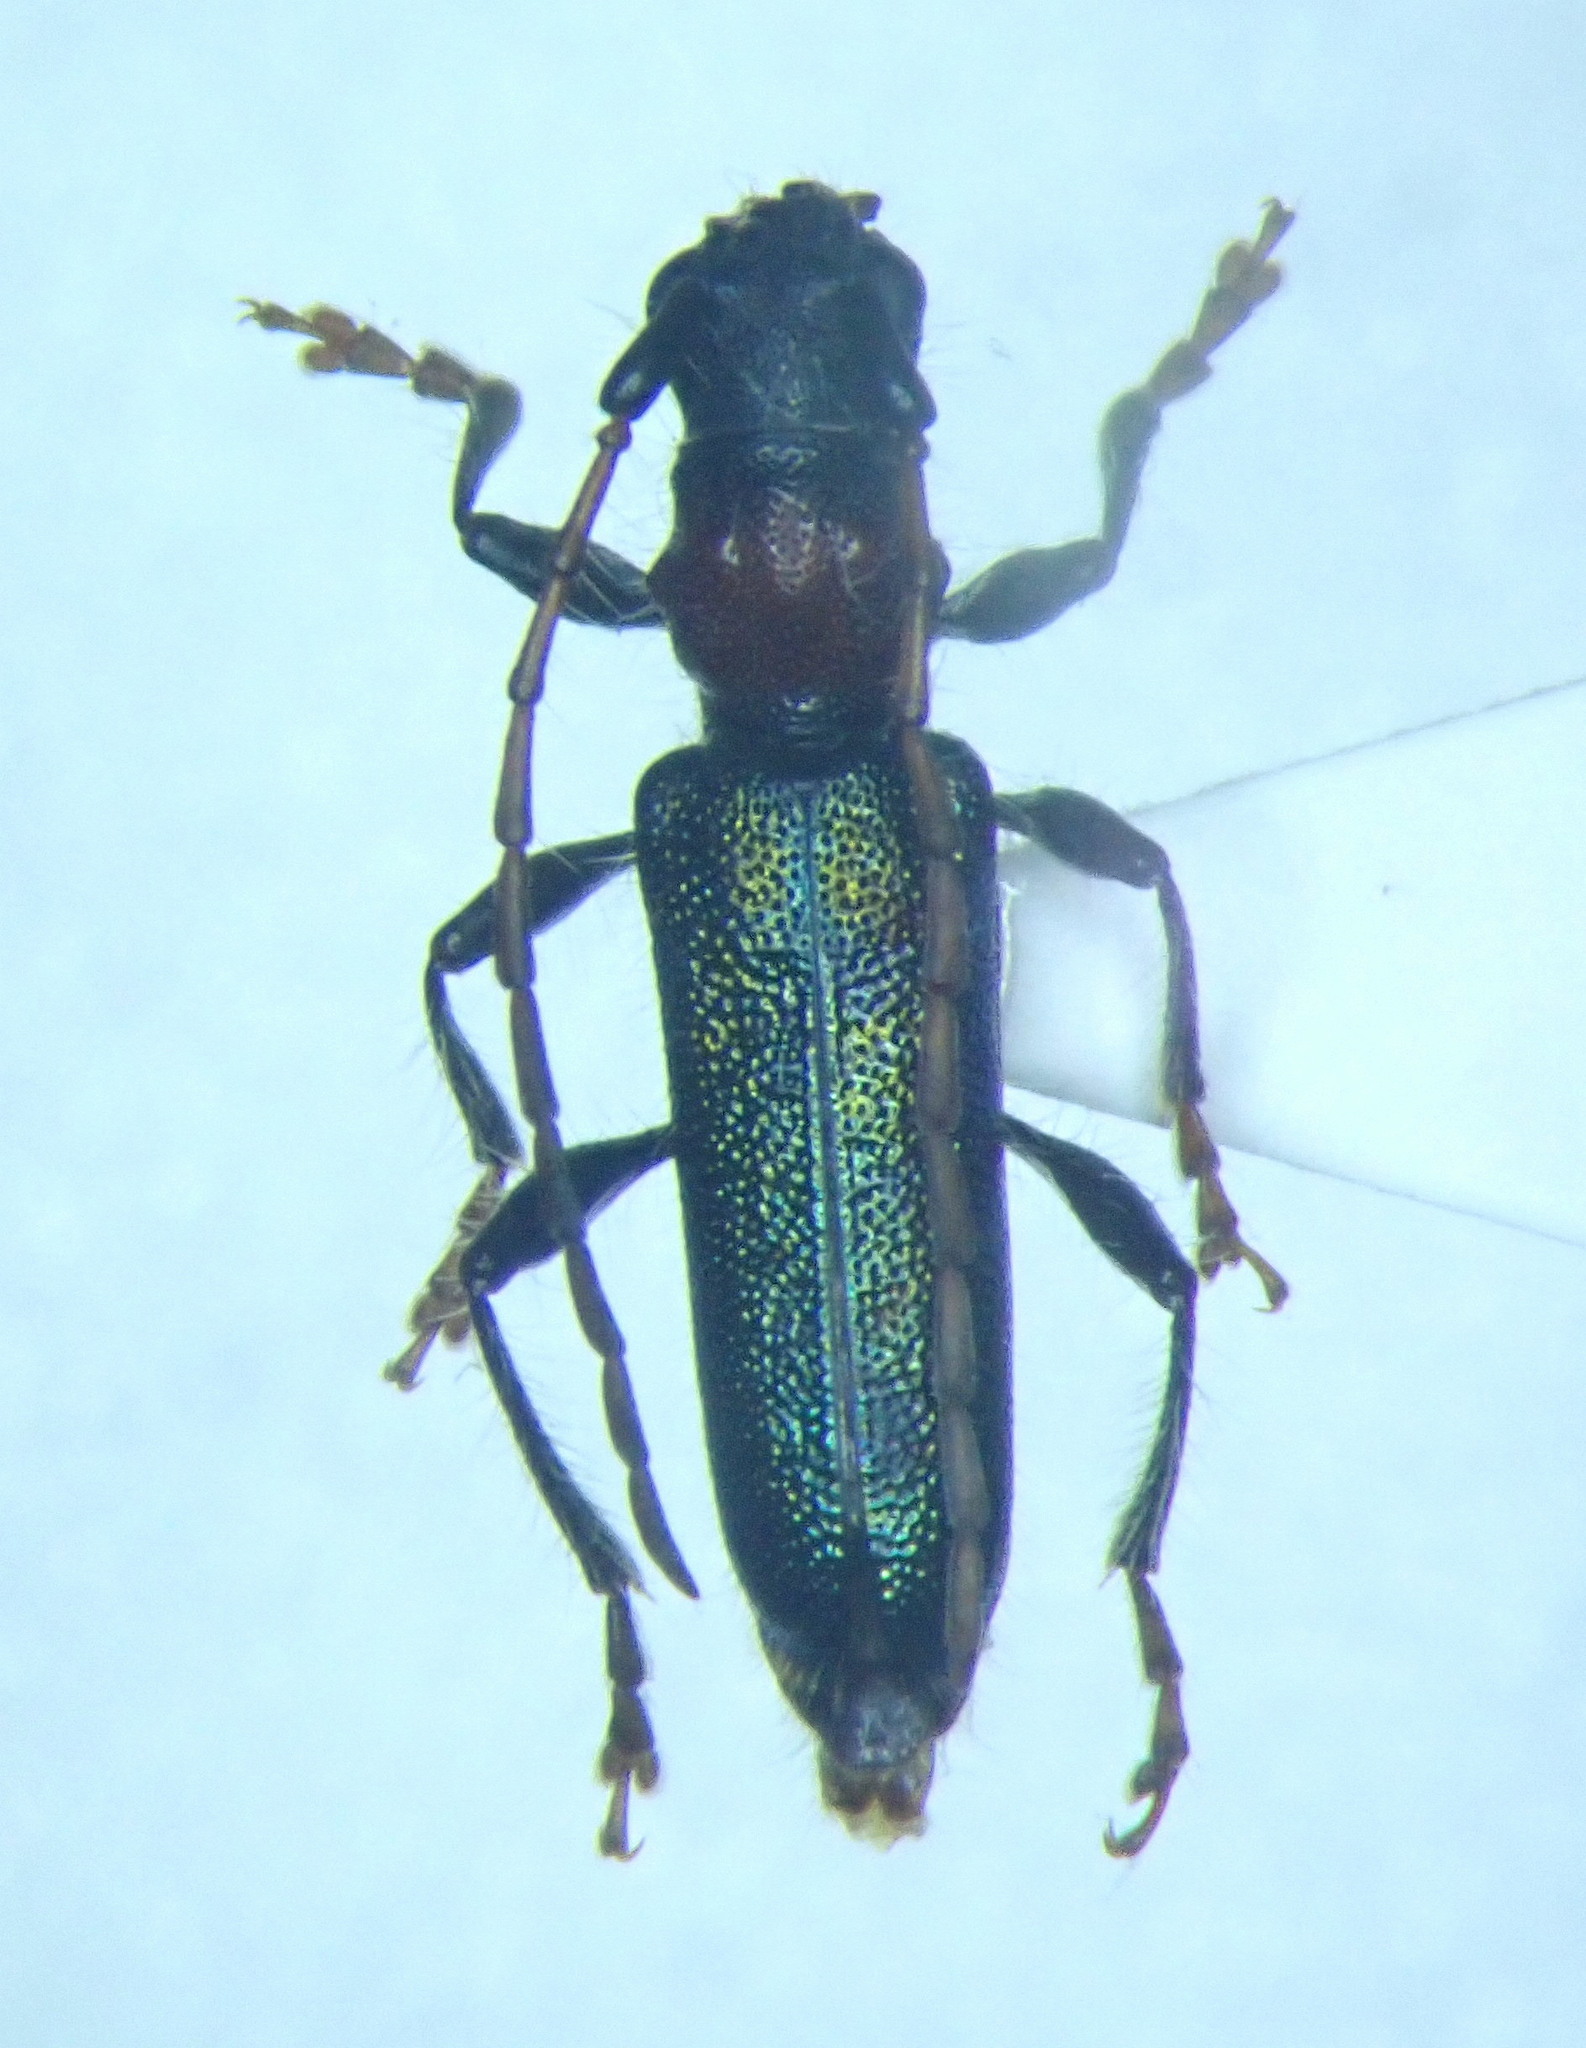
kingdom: Animalia
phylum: Arthropoda
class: Insecta
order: Coleoptera
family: Cerambycidae
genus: Certallum
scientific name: Certallum ebulinum
